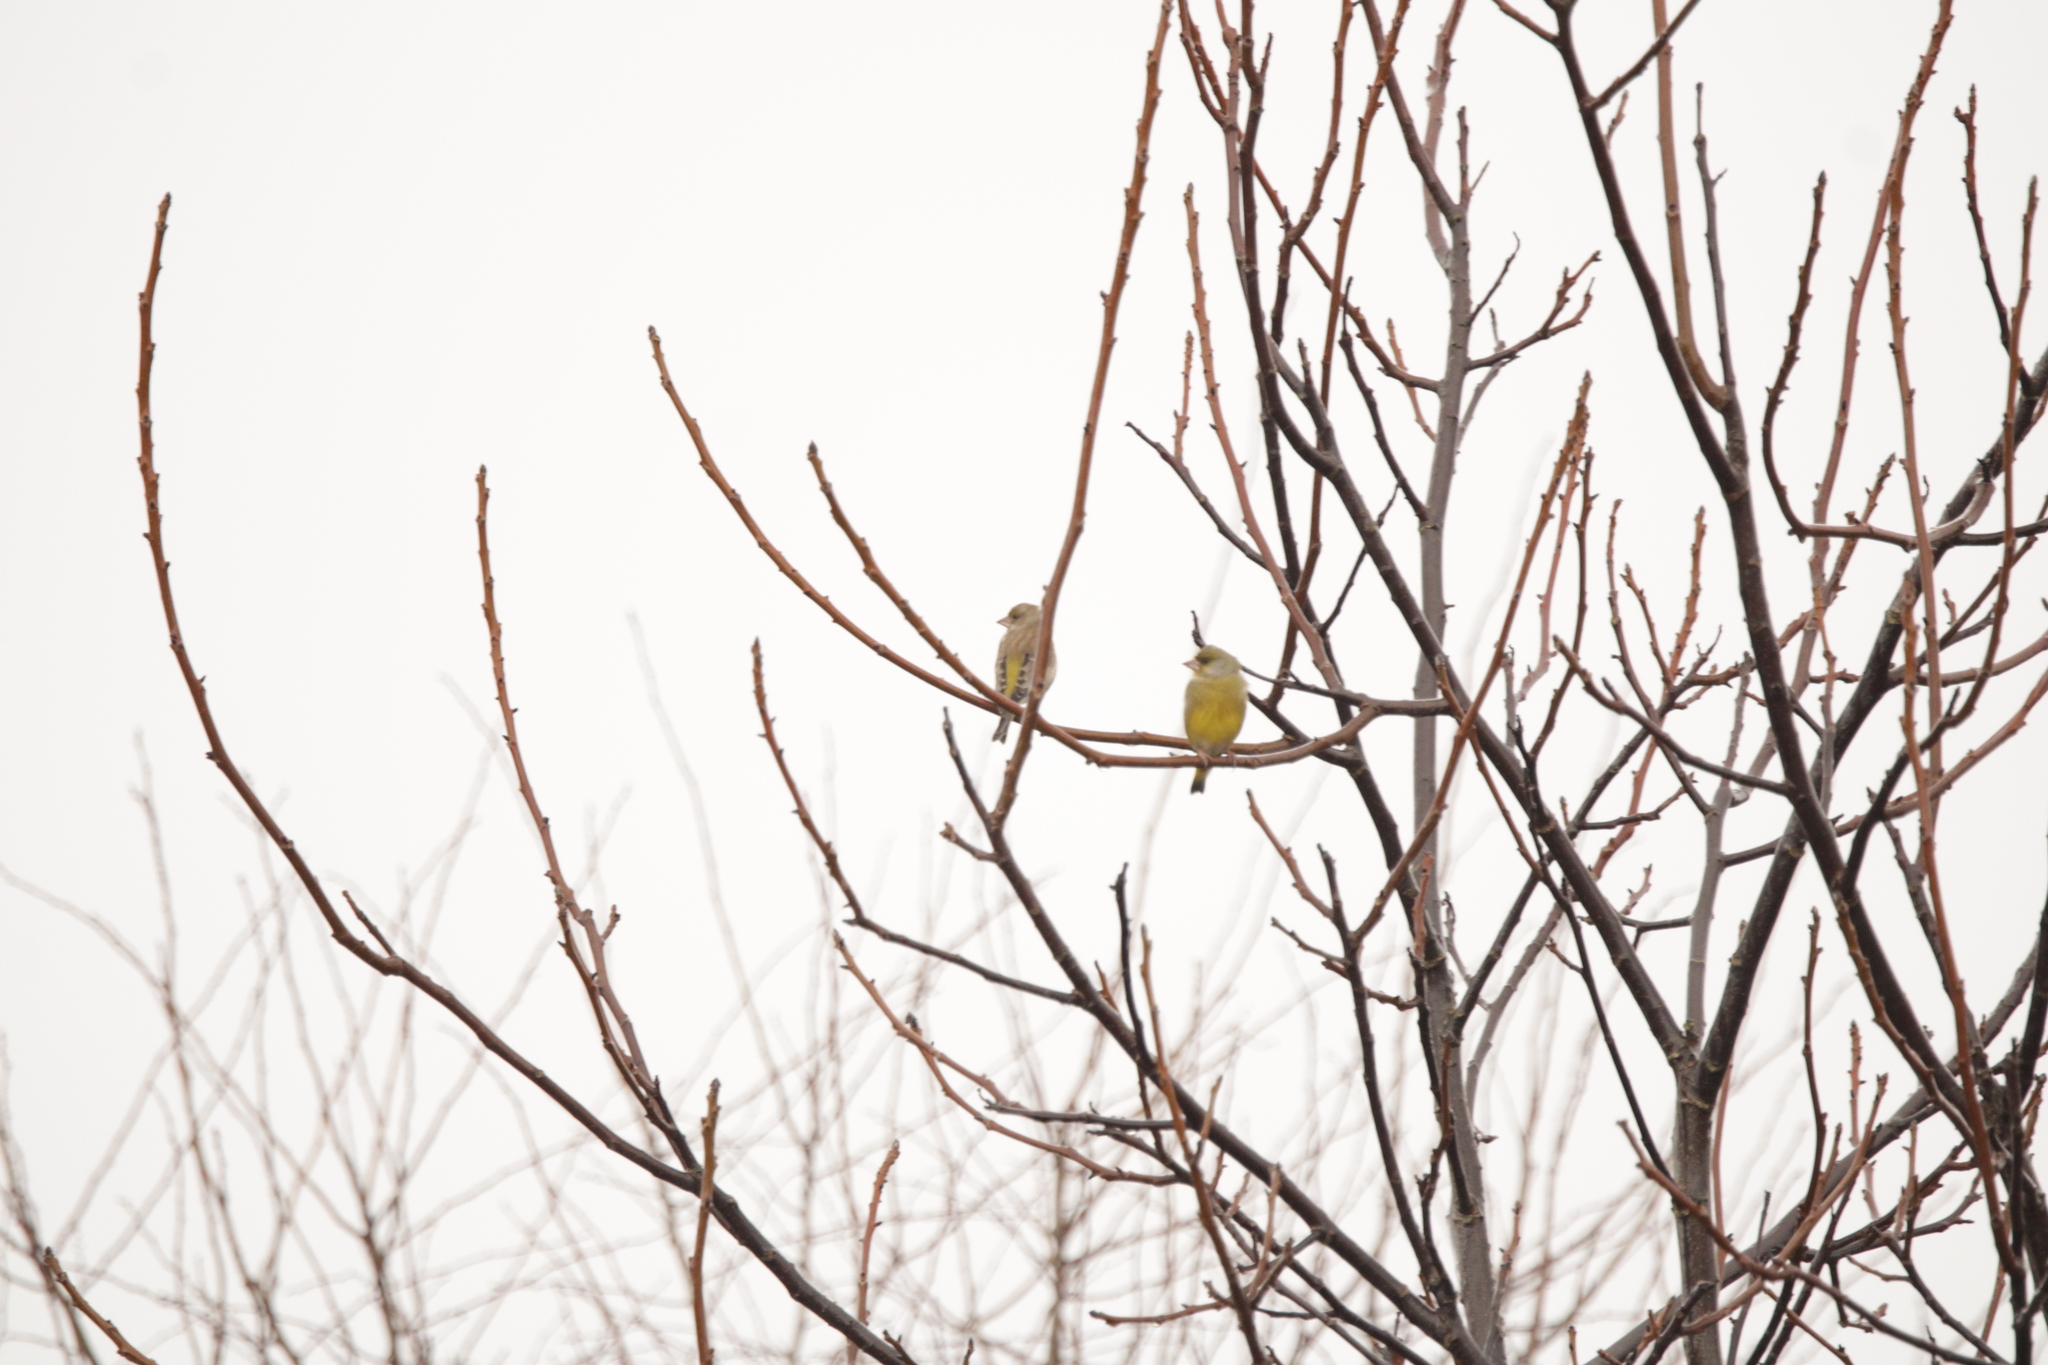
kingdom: Plantae
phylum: Tracheophyta
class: Liliopsida
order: Poales
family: Poaceae
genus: Chloris
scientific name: Chloris chloris
